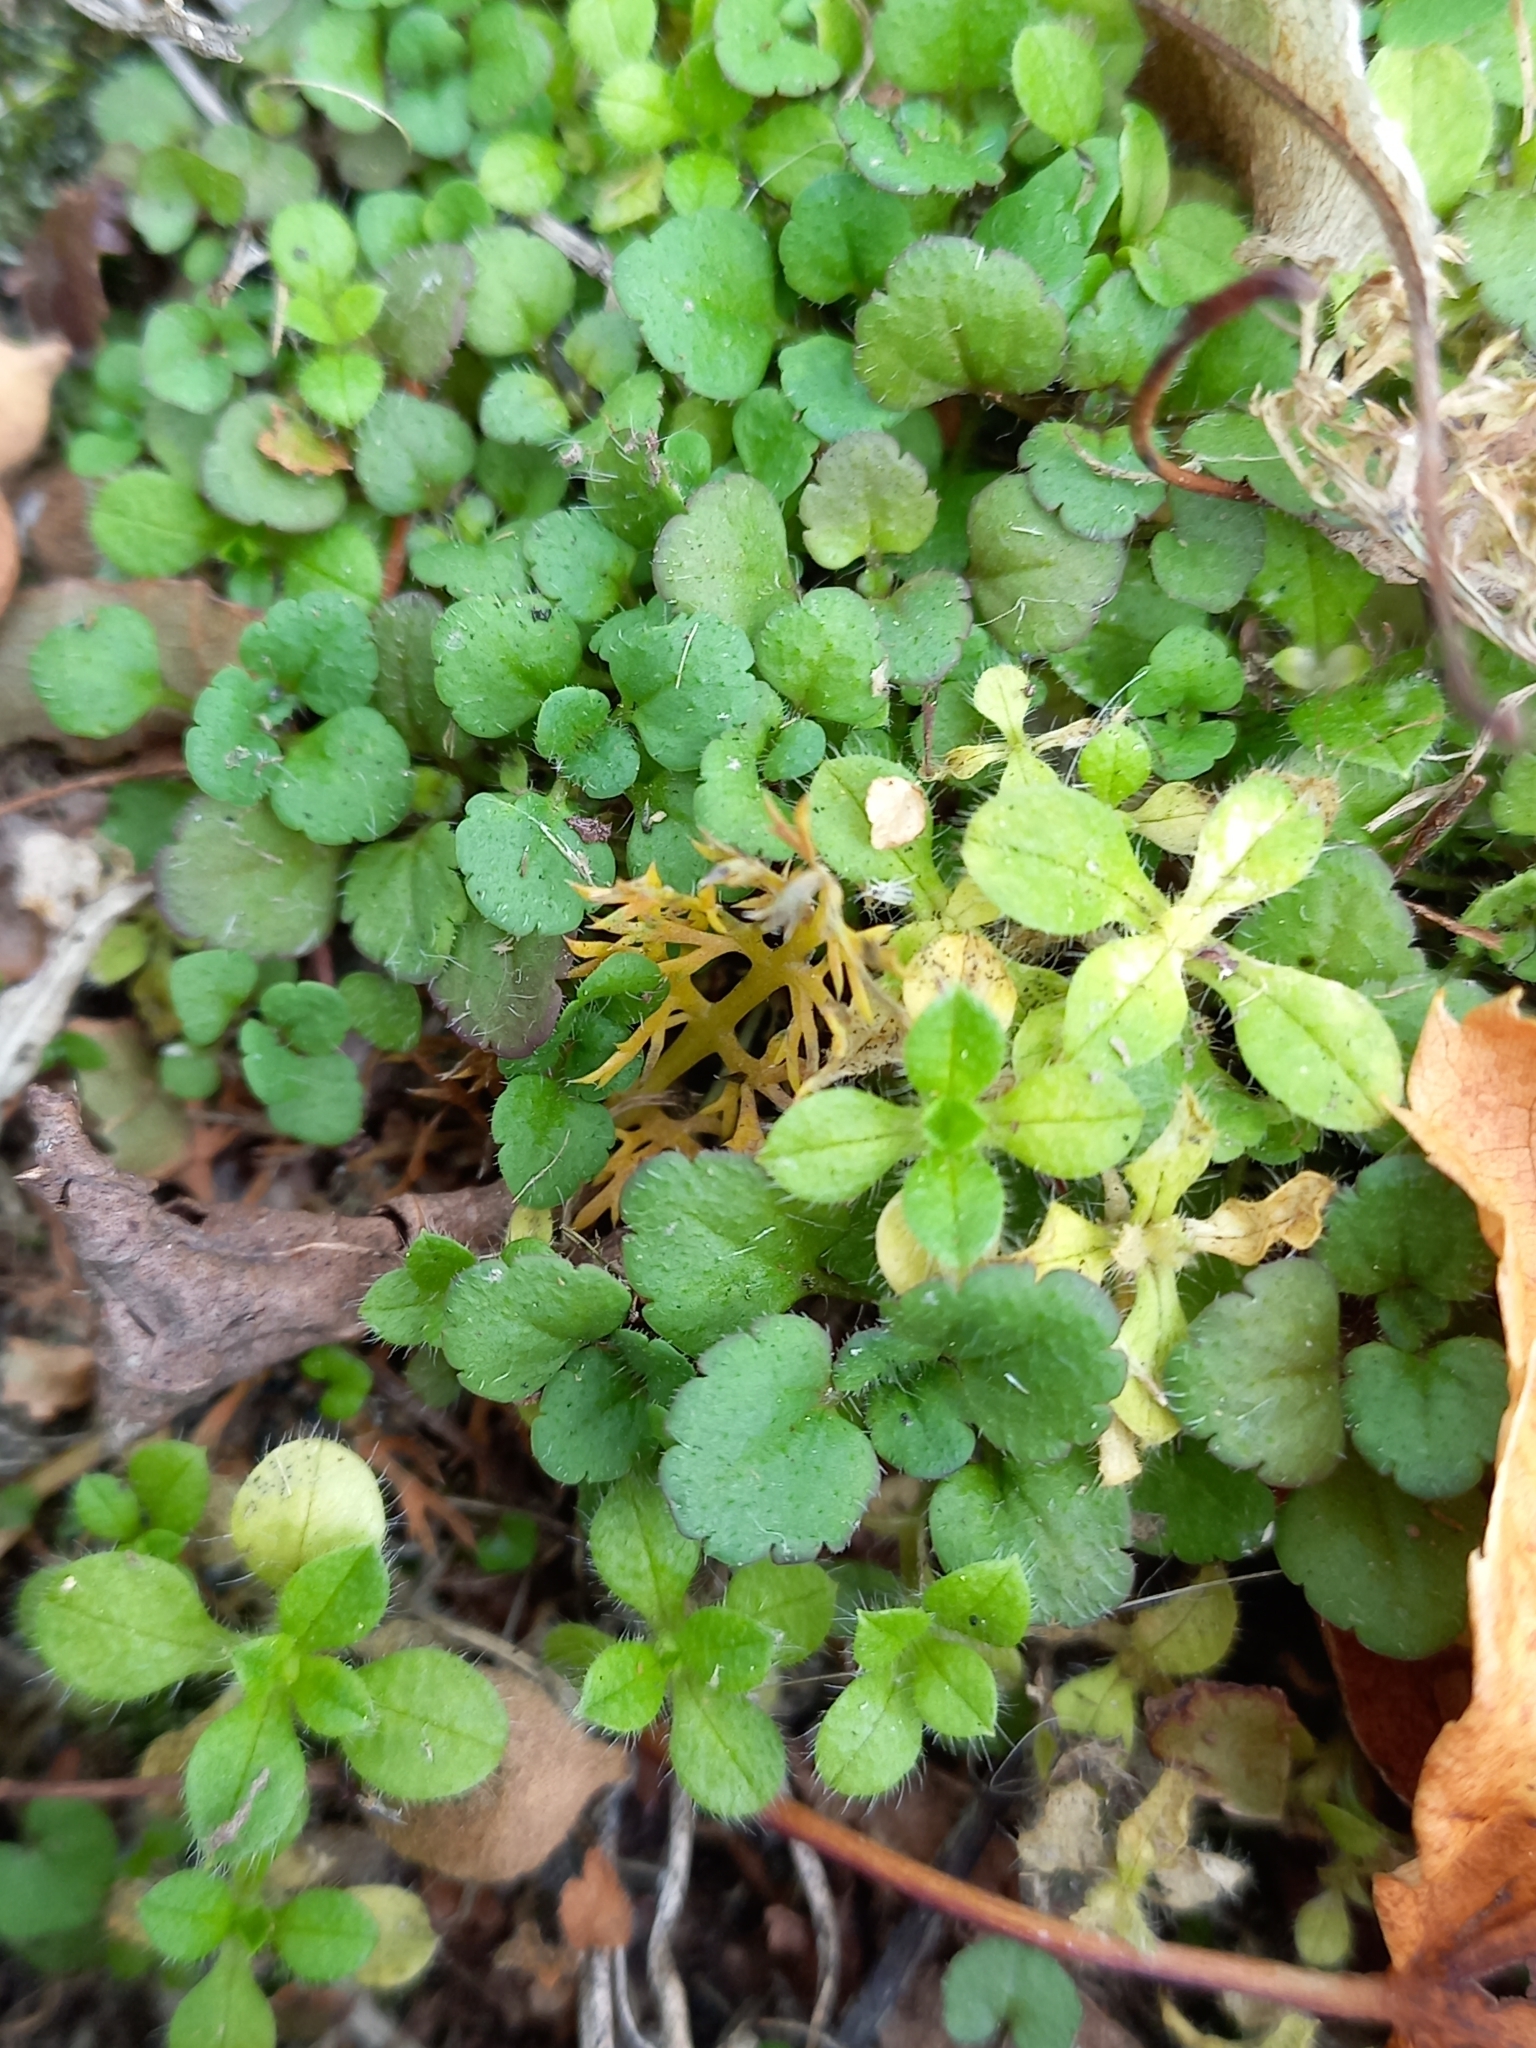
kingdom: Plantae
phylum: Tracheophyta
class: Magnoliopsida
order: Lamiales
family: Plantaginaceae
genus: Veronica
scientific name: Veronica persica
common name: Common field-speedwell
